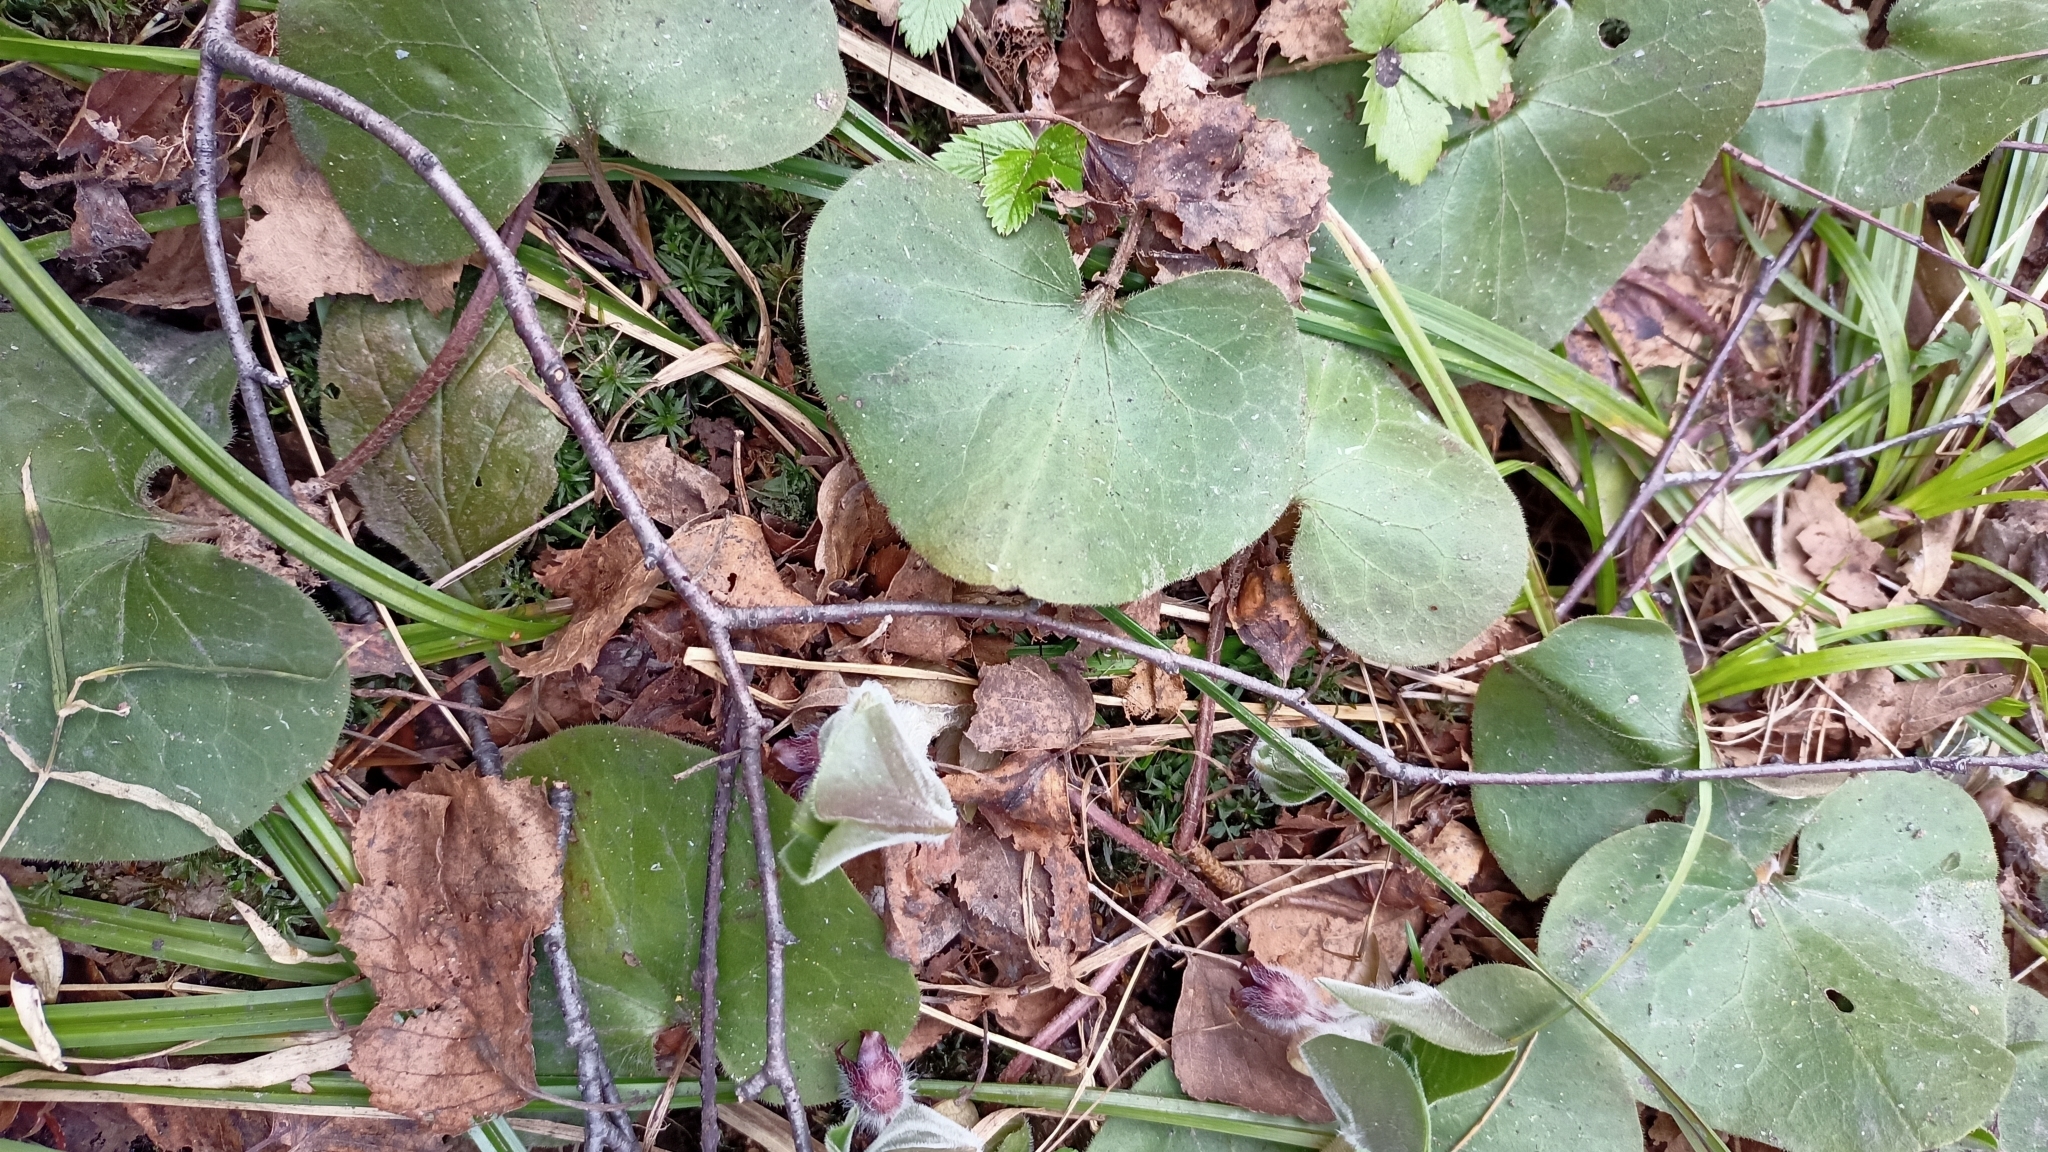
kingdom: Plantae
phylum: Tracheophyta
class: Magnoliopsida
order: Piperales
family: Aristolochiaceae
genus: Asarum
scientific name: Asarum europaeum
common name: Asarabacca
